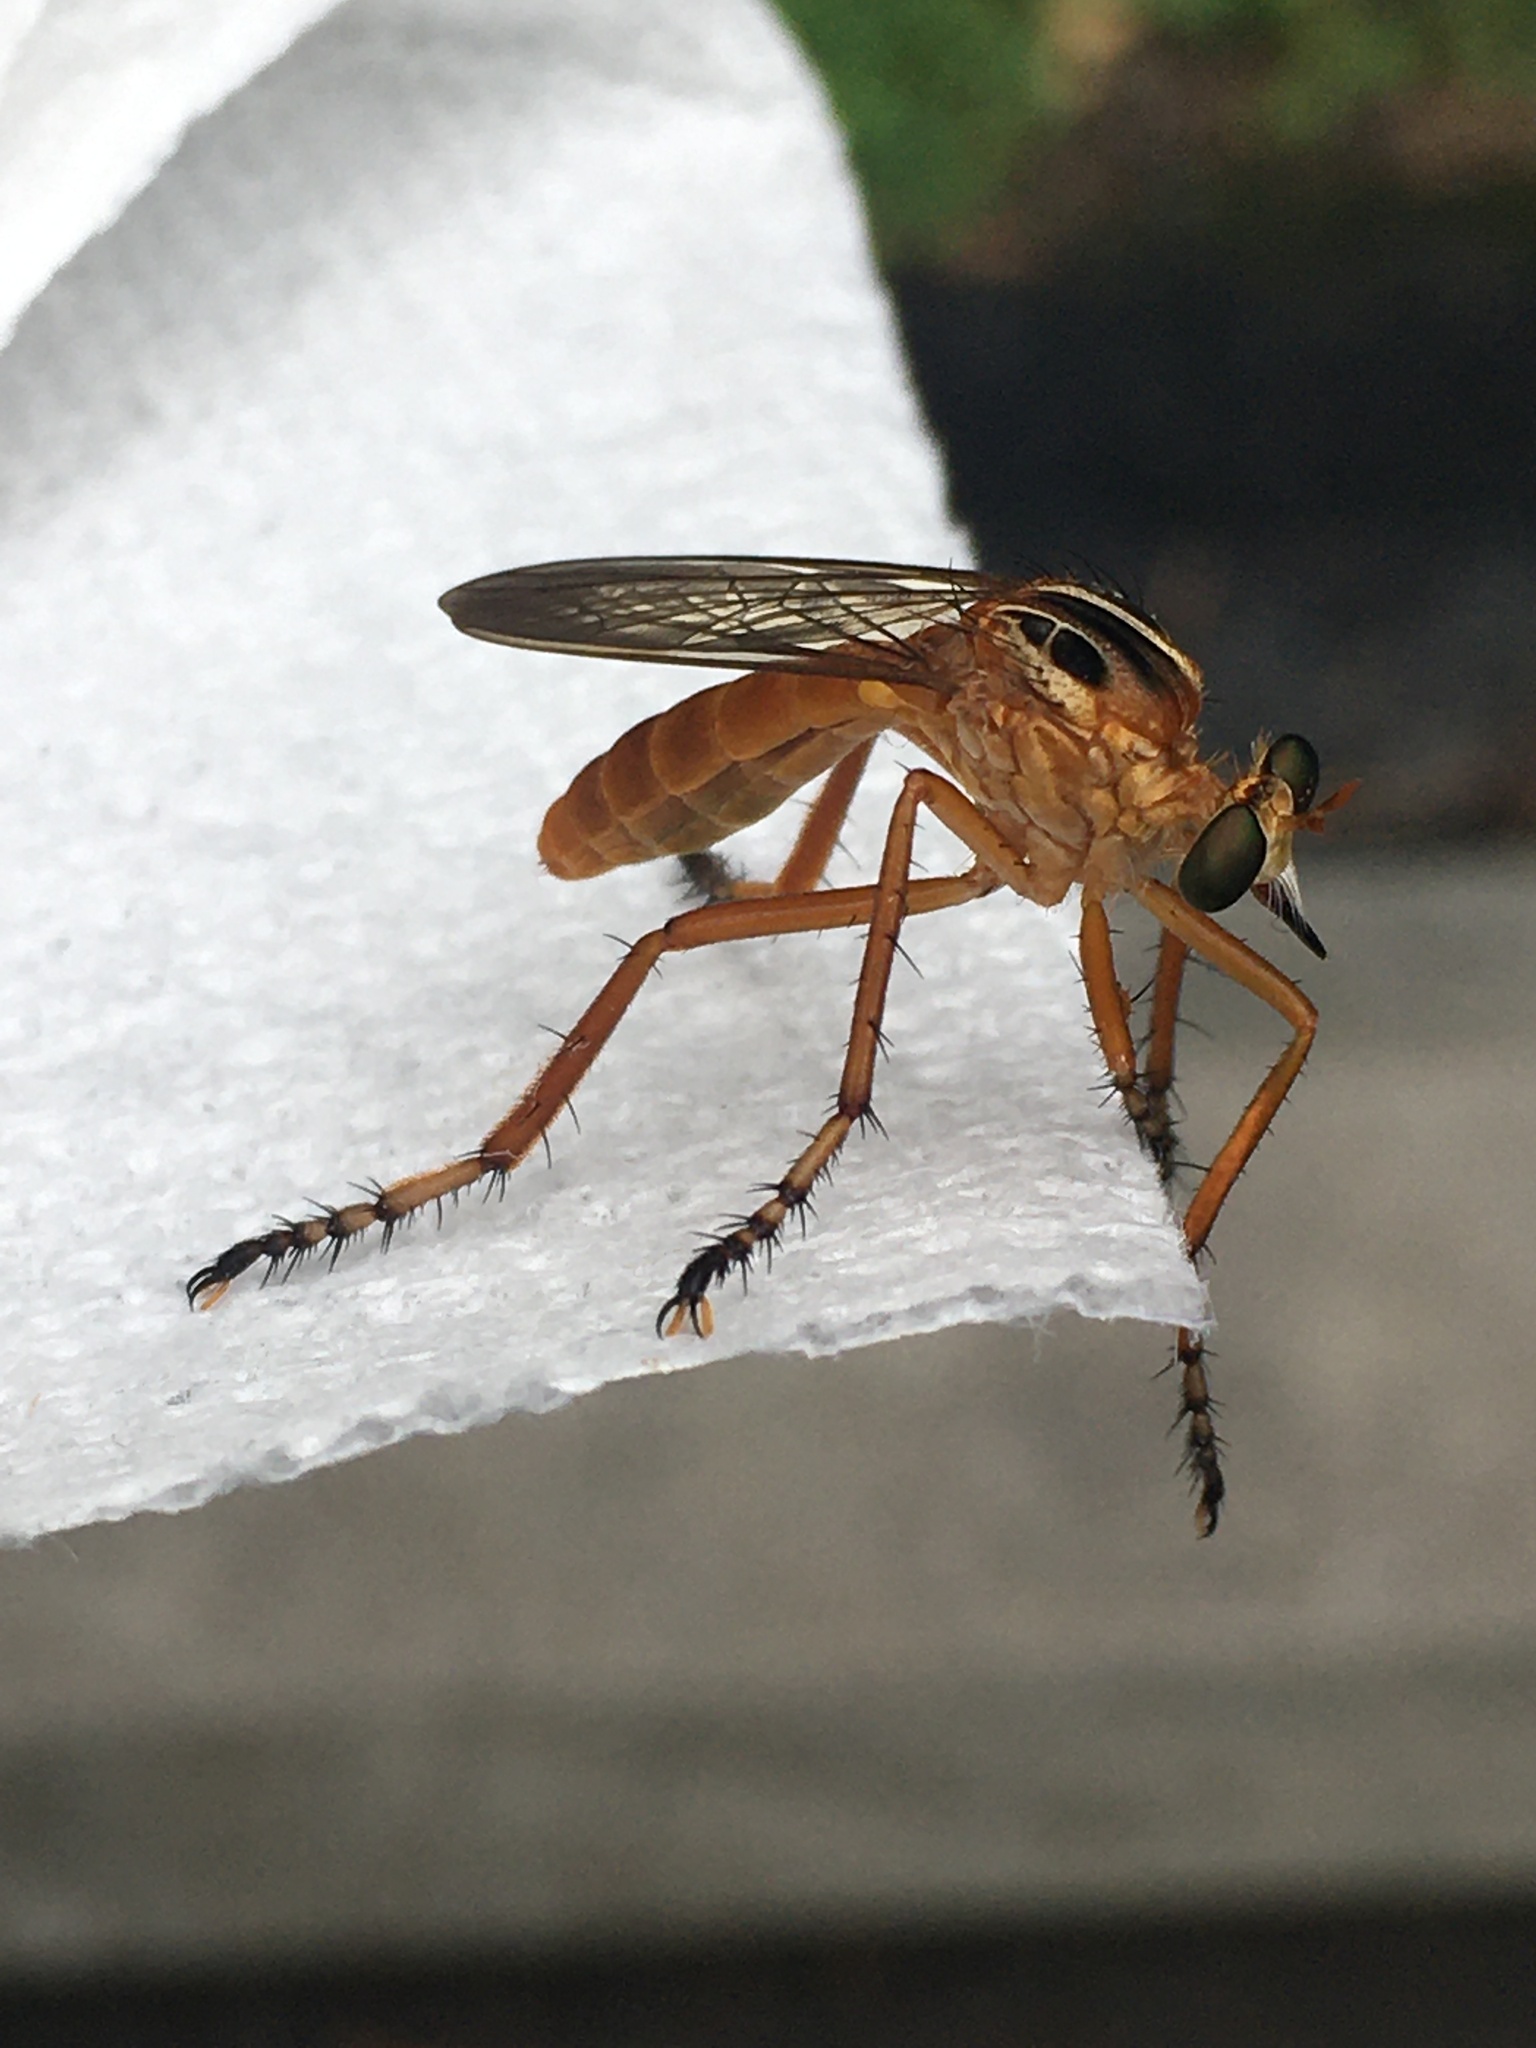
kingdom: Animalia
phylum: Arthropoda
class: Insecta
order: Diptera
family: Asilidae
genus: Diogmites
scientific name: Diogmites neoternatus
